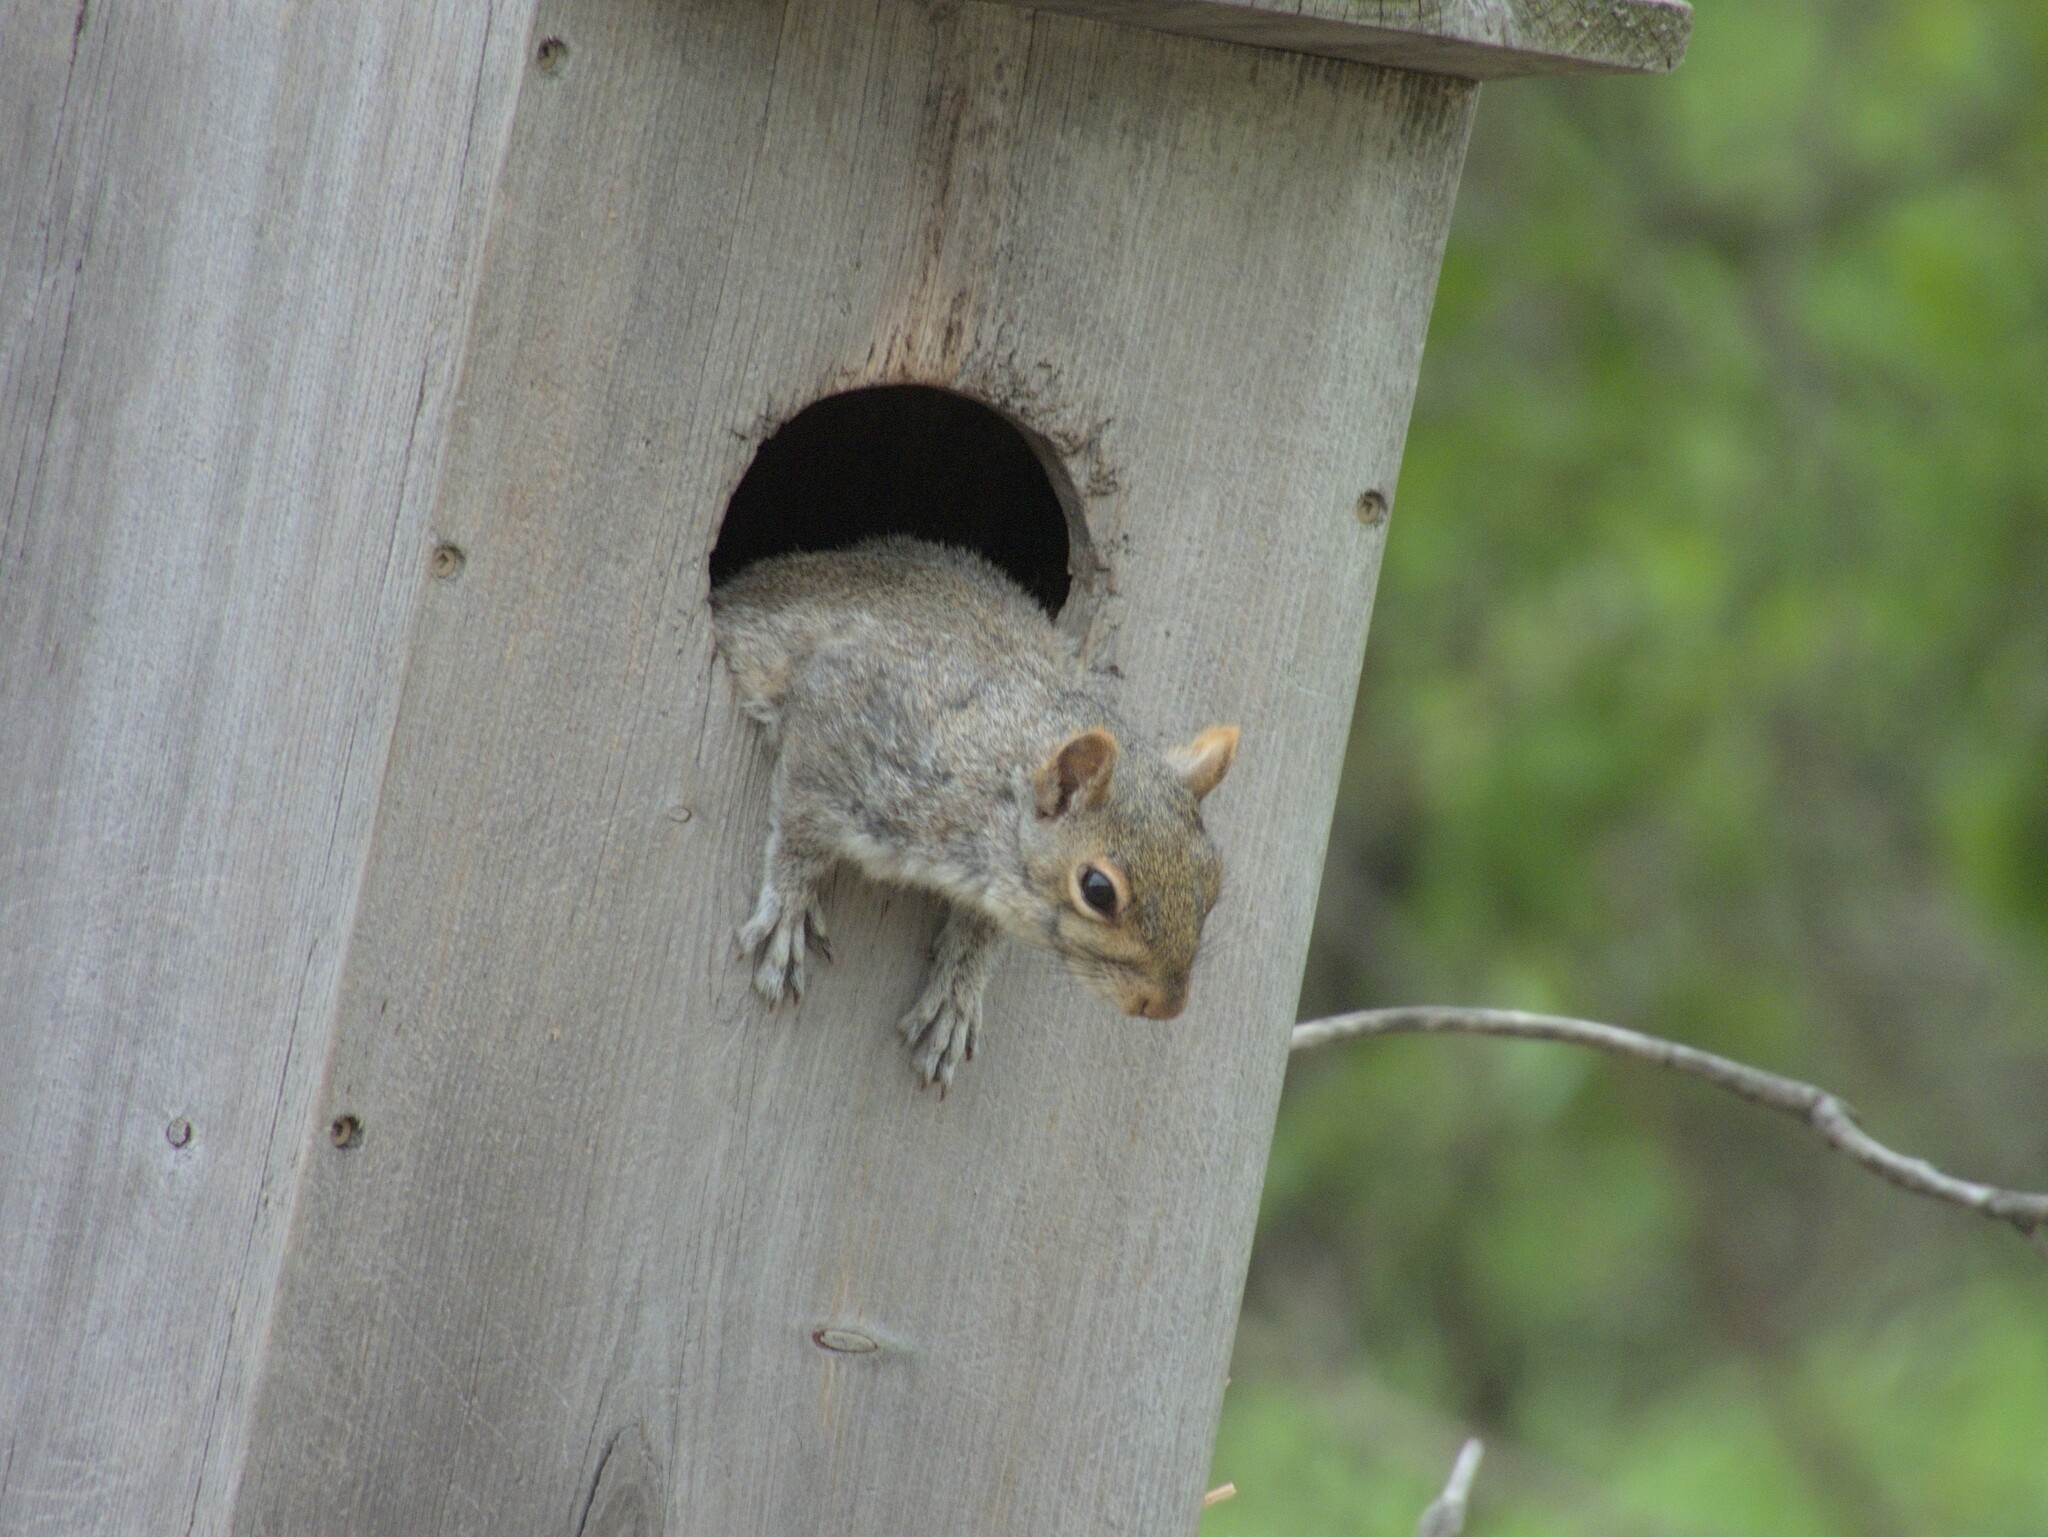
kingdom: Animalia
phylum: Chordata
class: Mammalia
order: Rodentia
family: Sciuridae
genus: Sciurus
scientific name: Sciurus carolinensis
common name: Eastern gray squirrel
